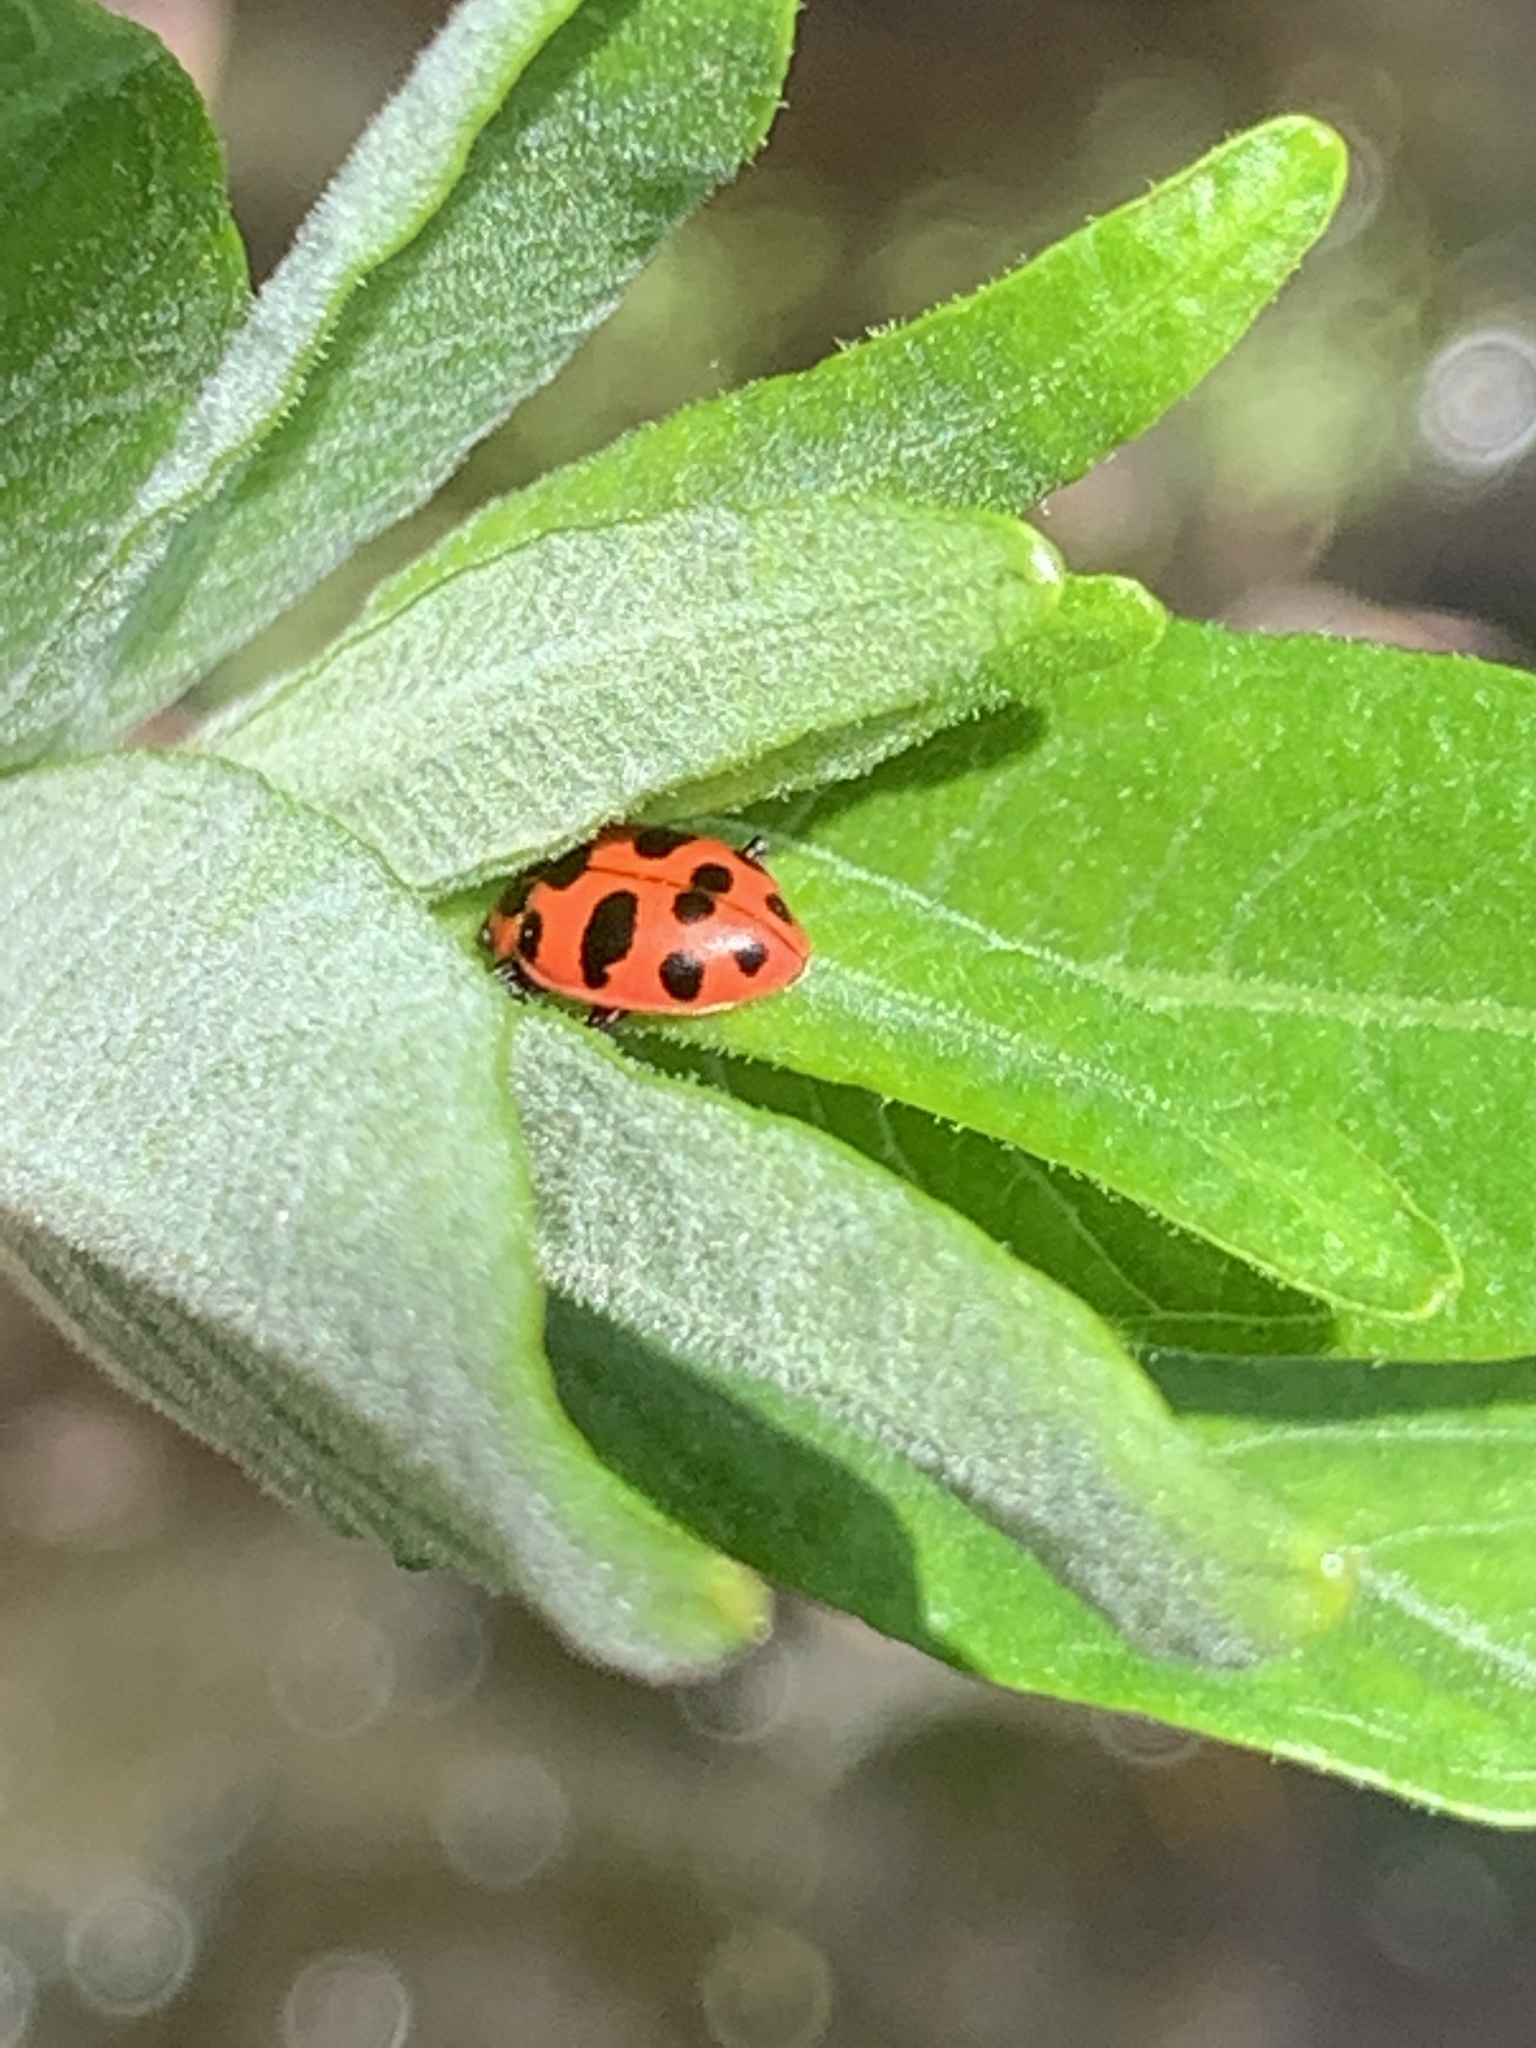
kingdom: Animalia
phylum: Arthropoda
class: Insecta
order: Coleoptera
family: Coccinellidae
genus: Coleomegilla
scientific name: Coleomegilla maculata
